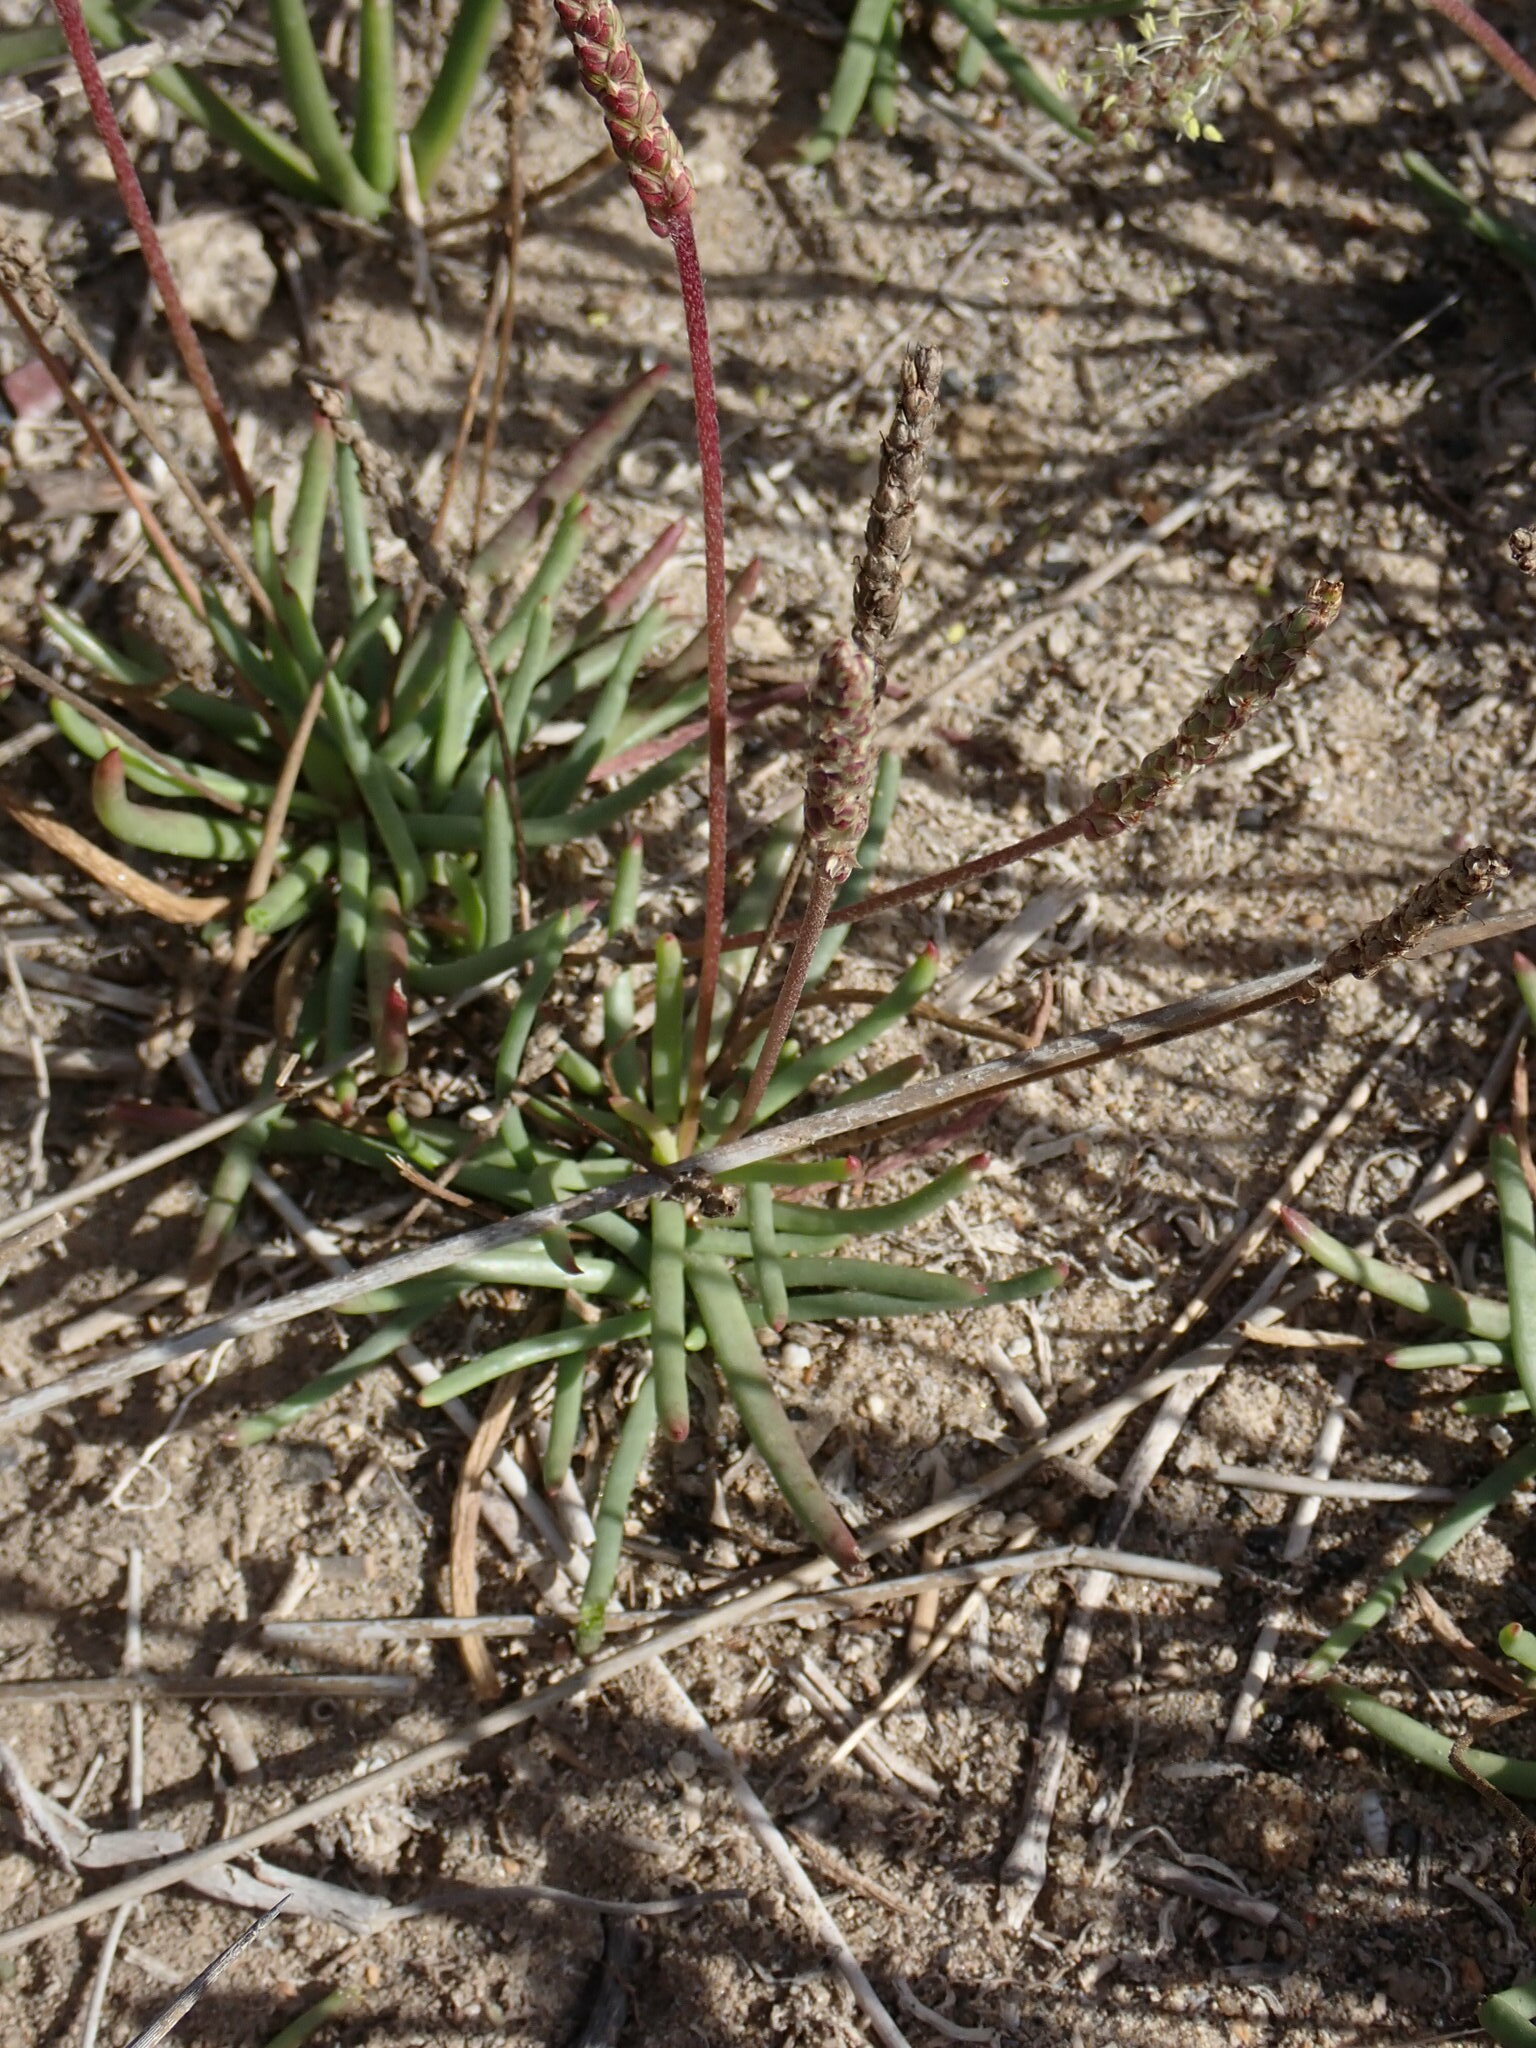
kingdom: Plantae
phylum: Tracheophyta
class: Magnoliopsida
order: Lamiales
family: Plantaginaceae
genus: Plantago
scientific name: Plantago crassifolia
